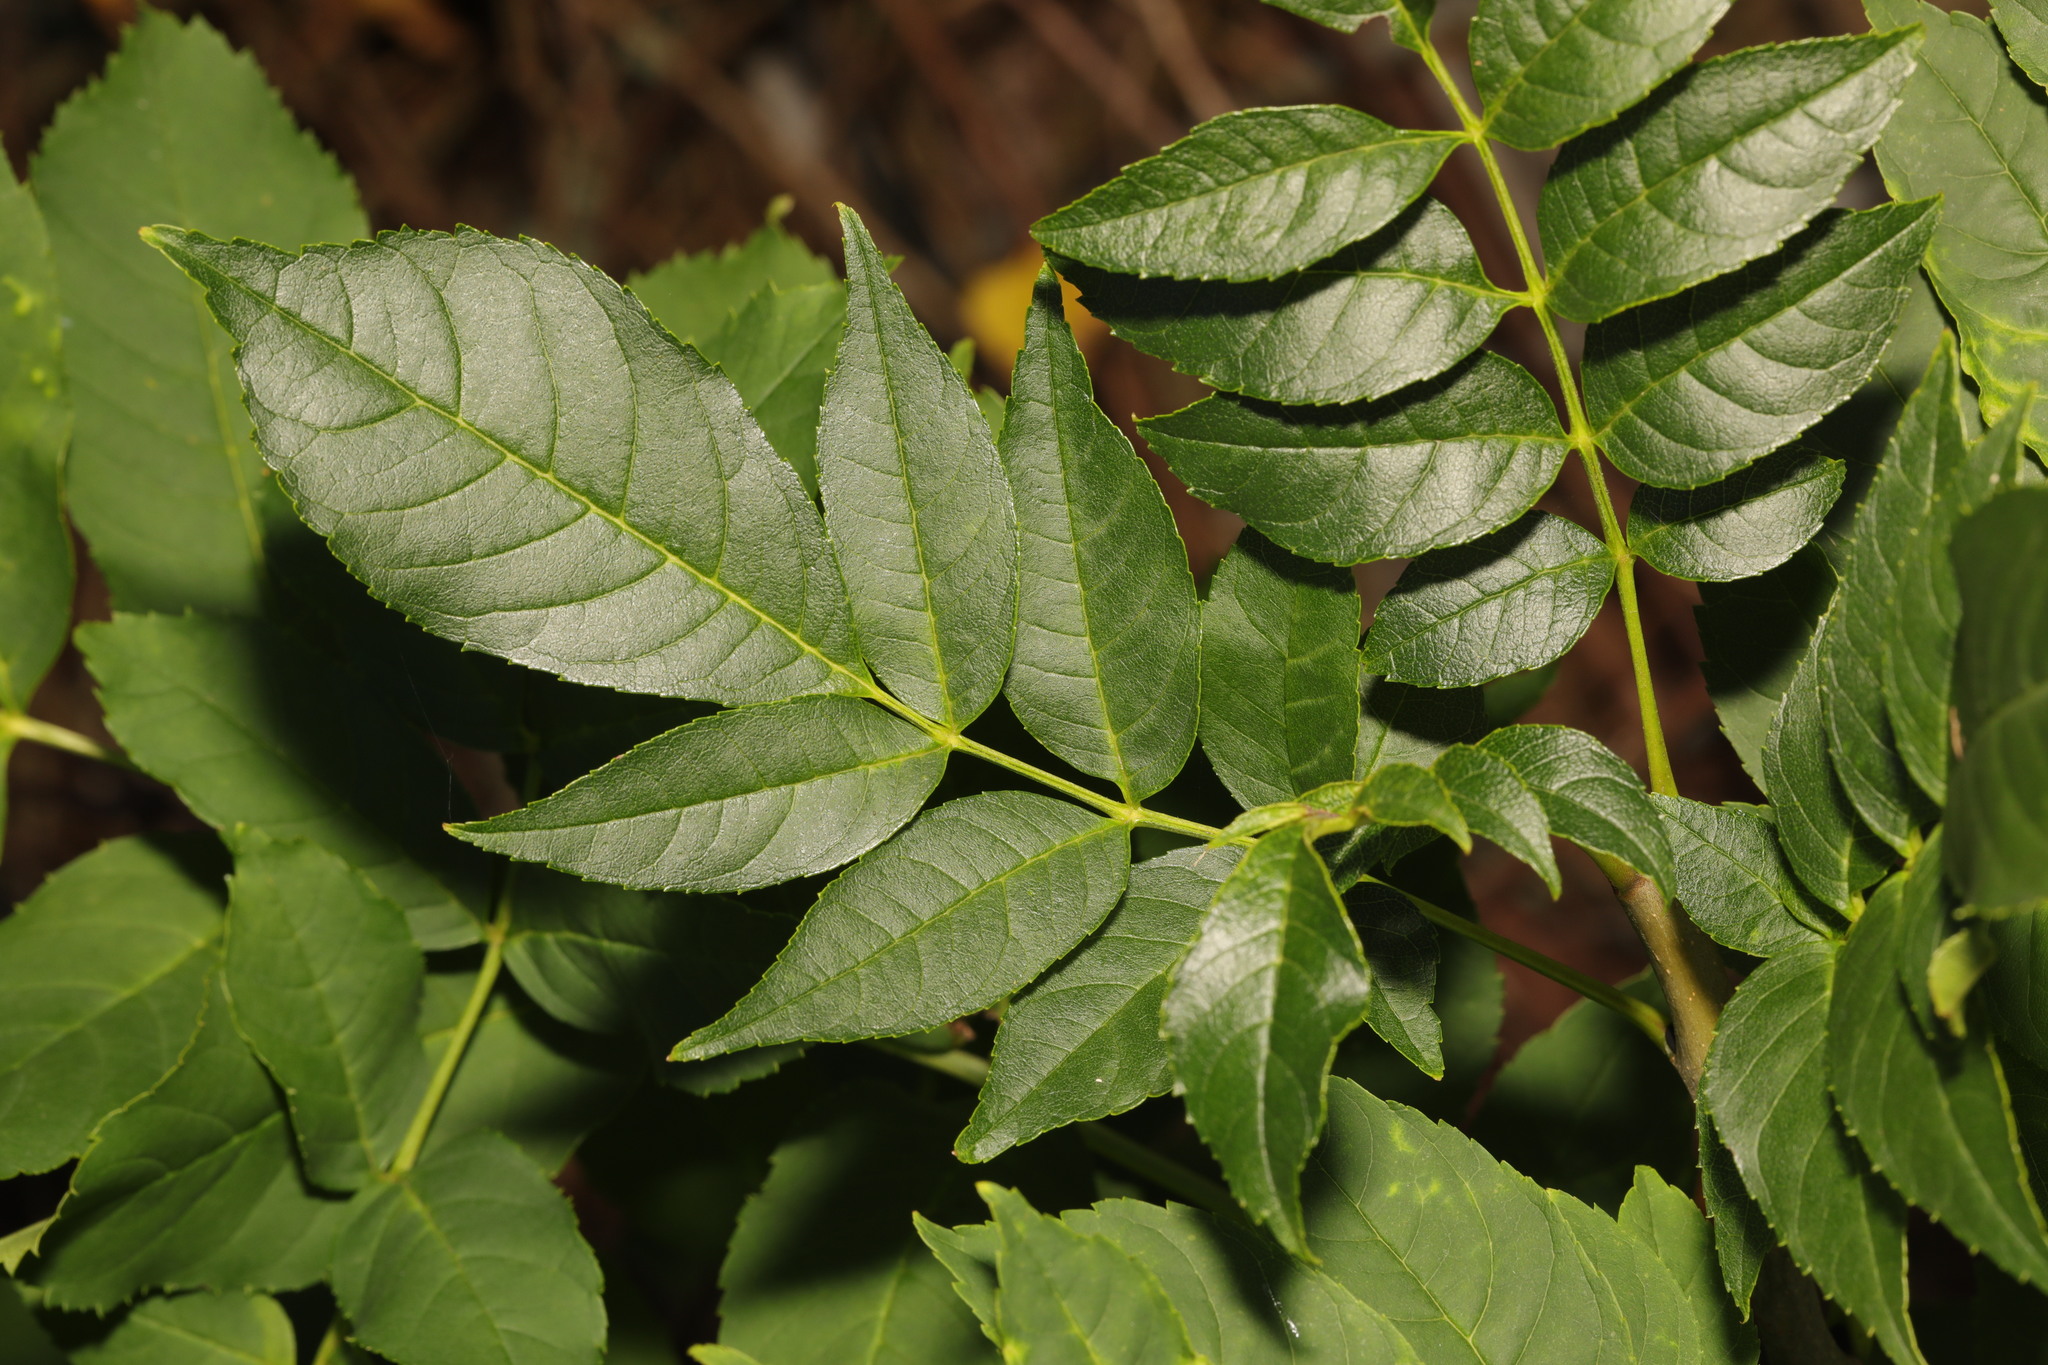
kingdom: Plantae
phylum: Tracheophyta
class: Magnoliopsida
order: Lamiales
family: Oleaceae
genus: Fraxinus
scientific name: Fraxinus excelsior
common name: European ash
